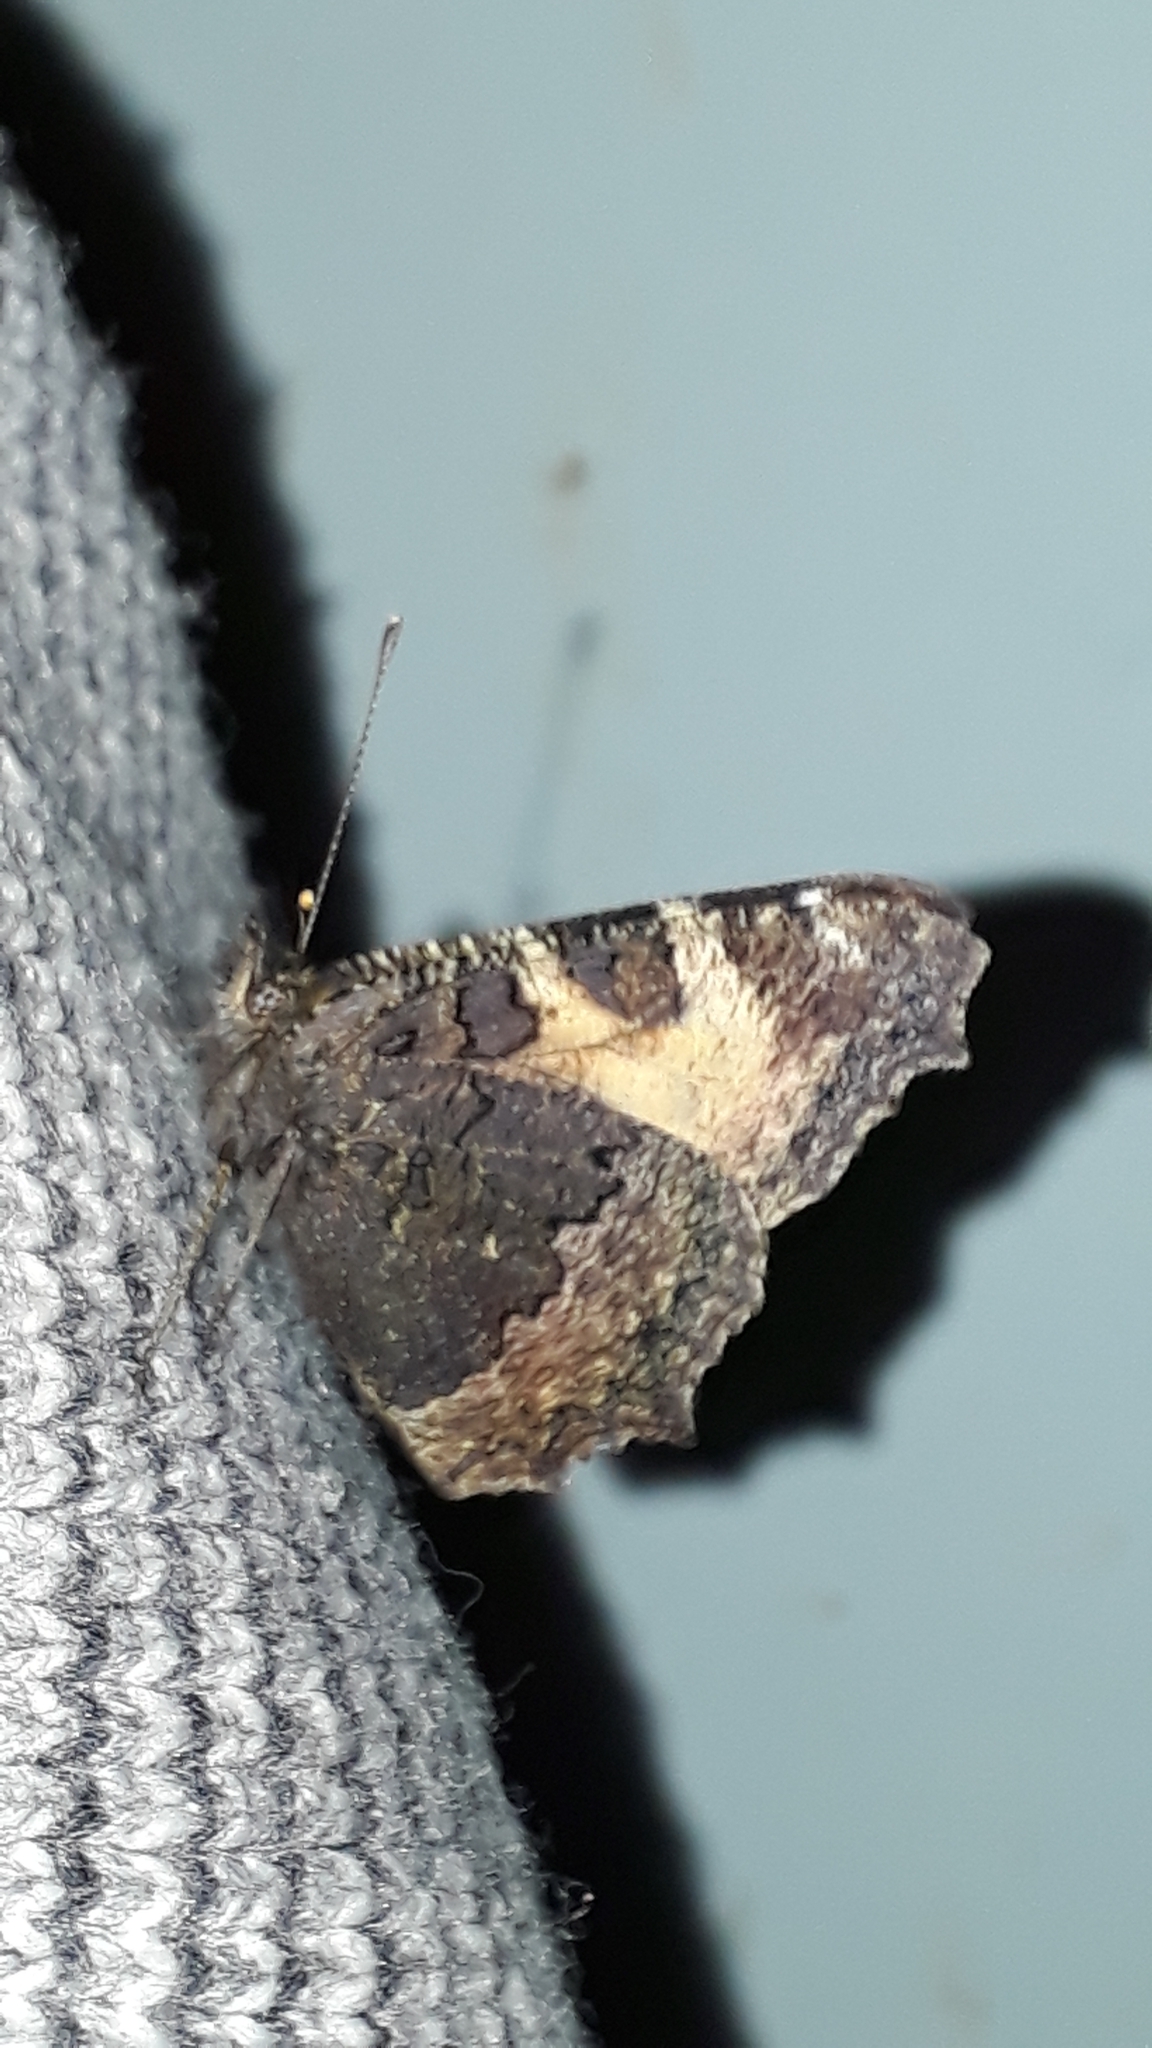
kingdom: Animalia
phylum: Arthropoda
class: Insecta
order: Lepidoptera
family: Nymphalidae
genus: Aglais
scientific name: Aglais urticae
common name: Small tortoiseshell
